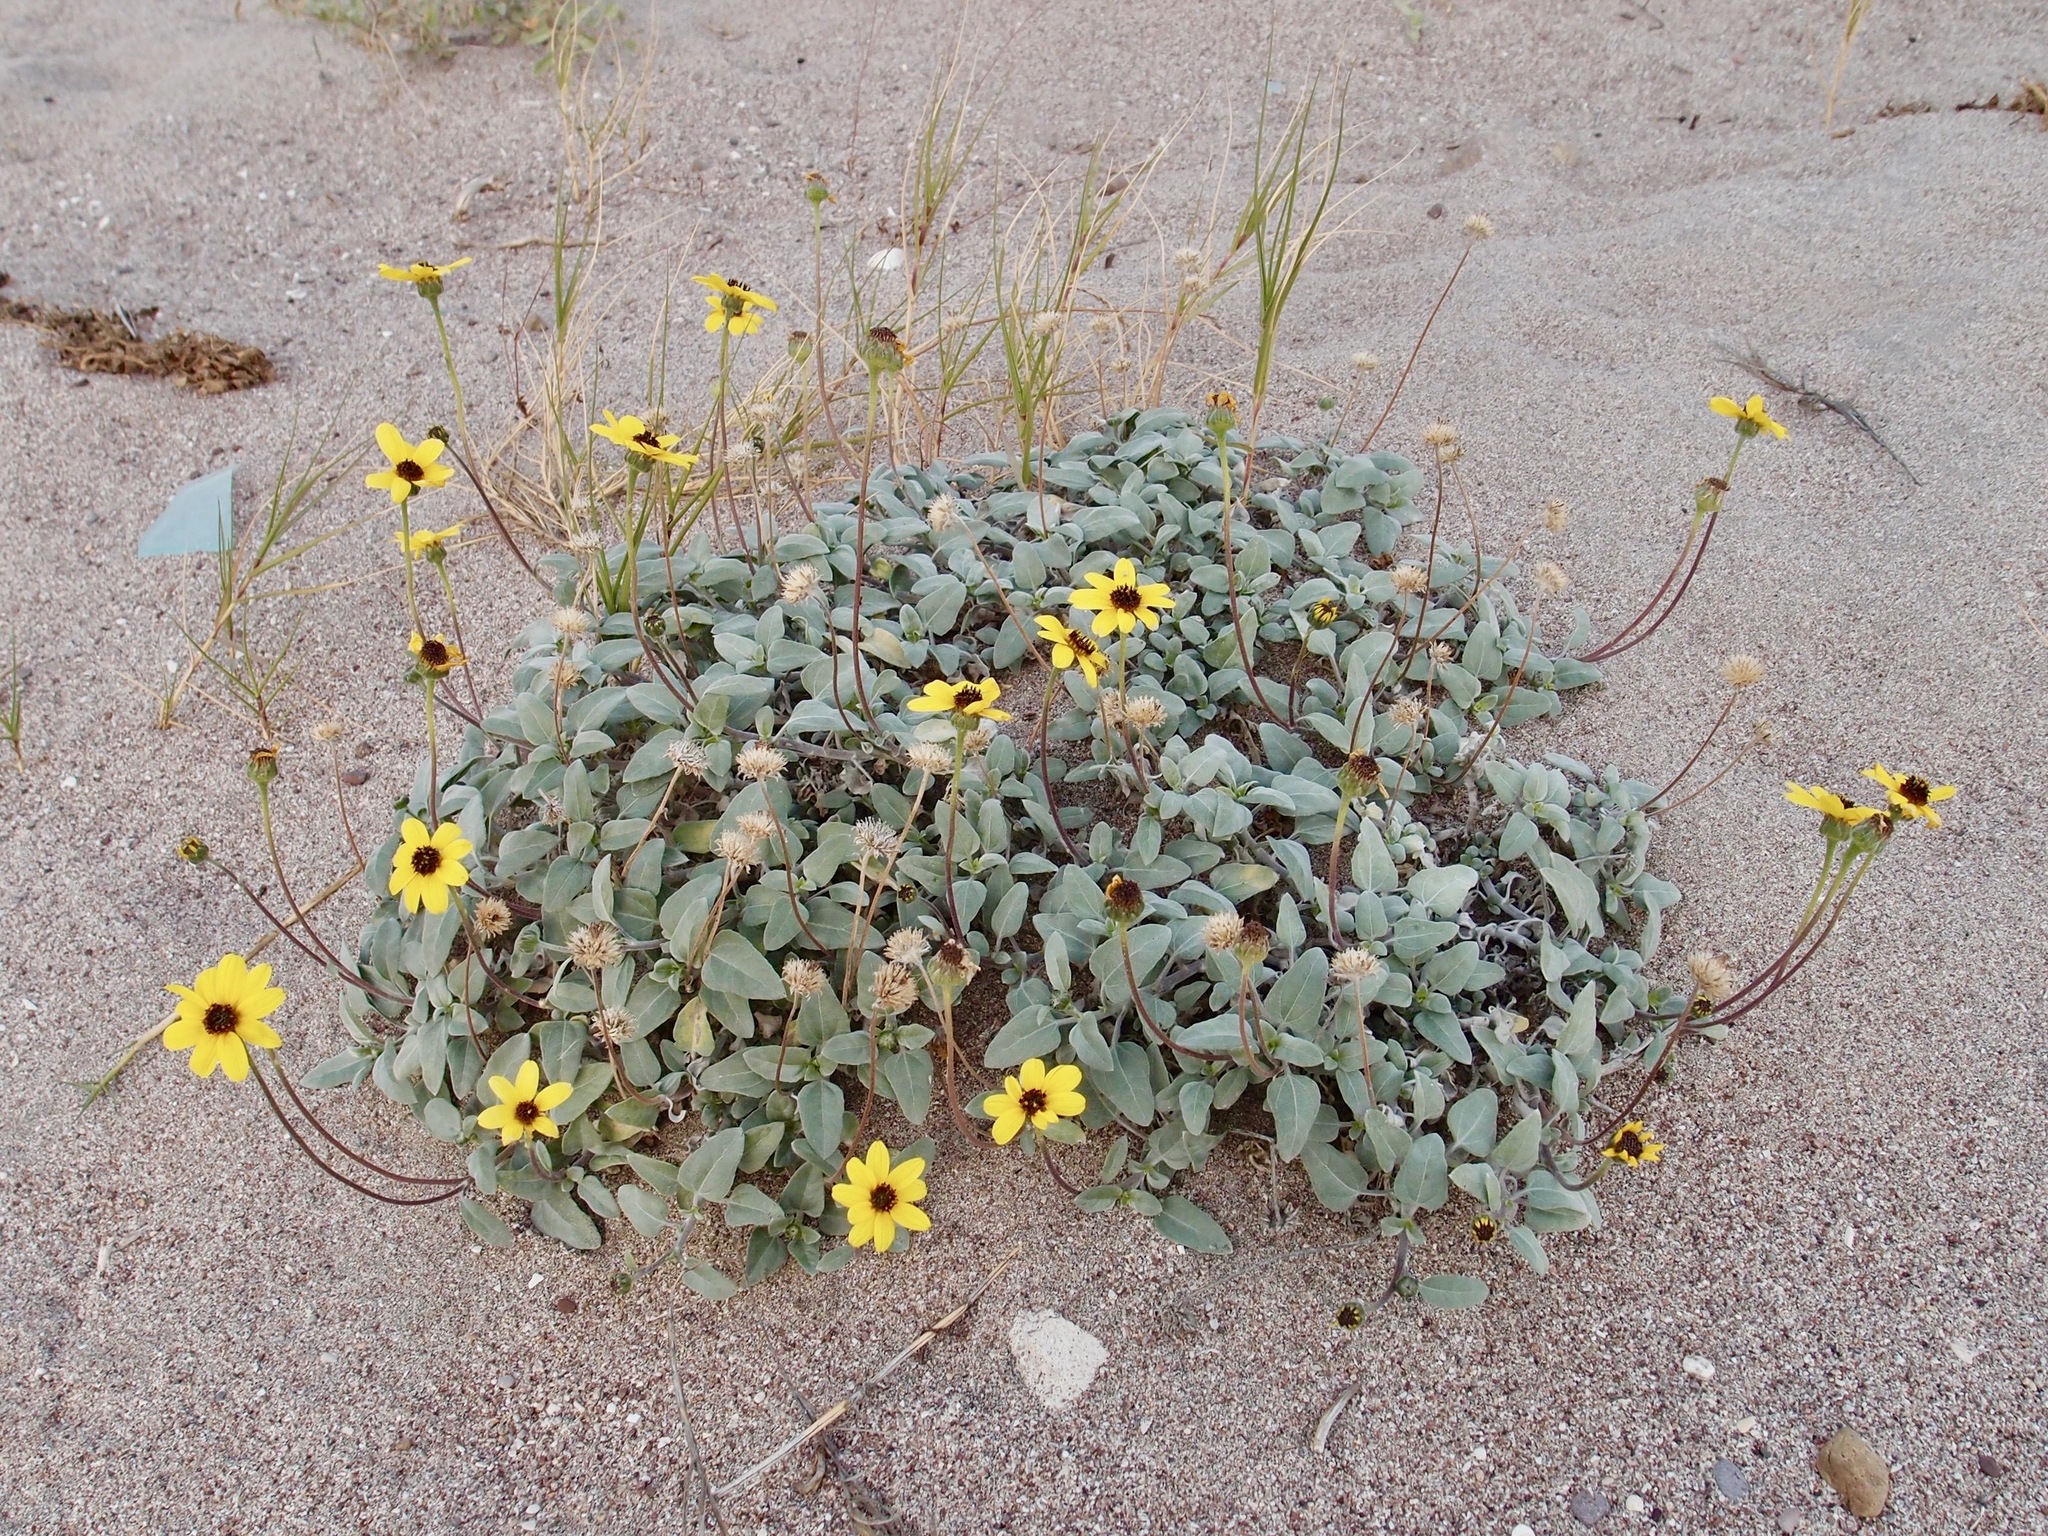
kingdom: Plantae
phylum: Tracheophyta
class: Magnoliopsida
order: Asterales
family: Asteraceae
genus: Helianthus
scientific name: Helianthus niveus
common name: Snowy sunflower
